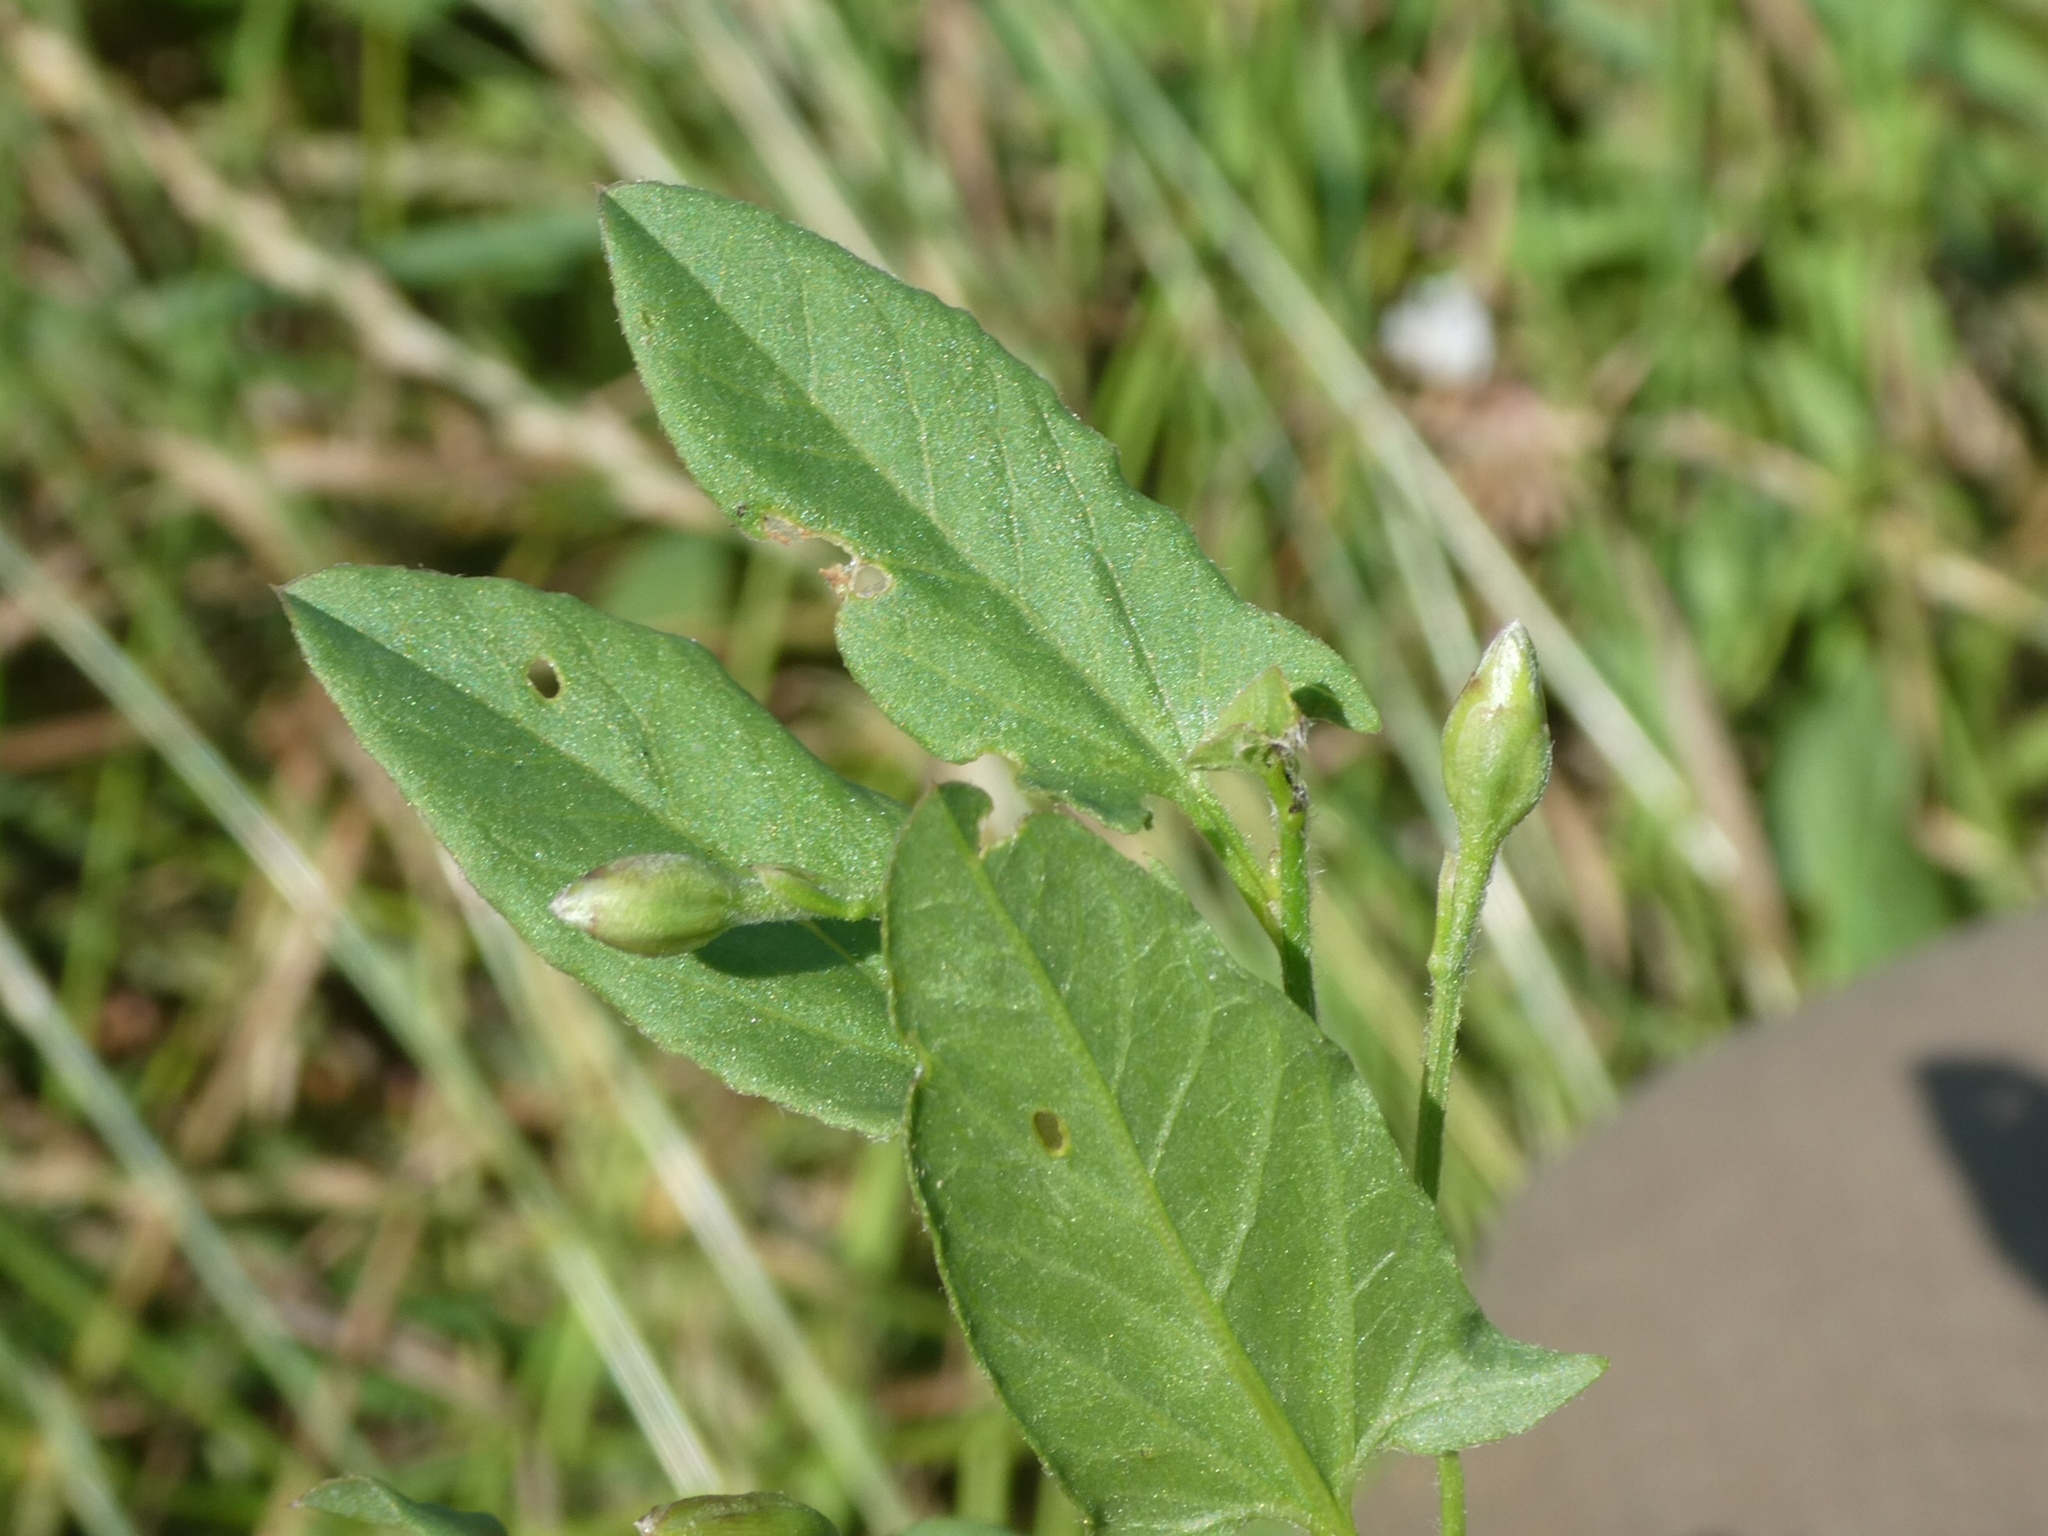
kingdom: Plantae
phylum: Tracheophyta
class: Magnoliopsida
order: Solanales
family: Convolvulaceae
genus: Convolvulus
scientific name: Convolvulus arvensis
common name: Field bindweed
